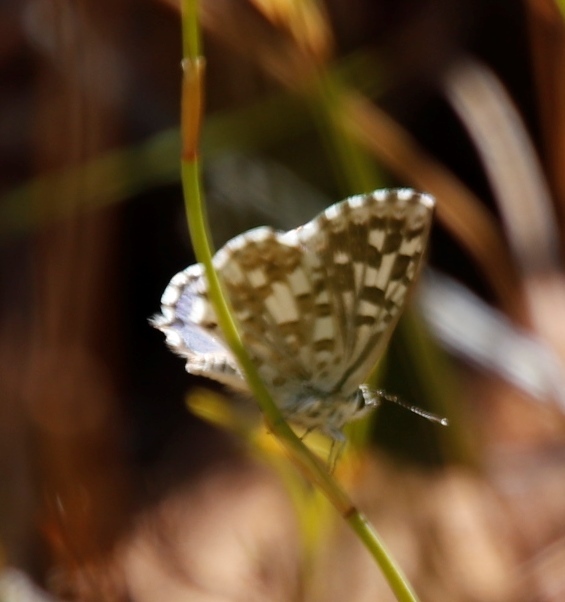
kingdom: Animalia
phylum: Arthropoda
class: Insecta
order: Lepidoptera
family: Lycaenidae
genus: Tarucus
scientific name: Tarucus thespis
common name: Vivid dotted blue
